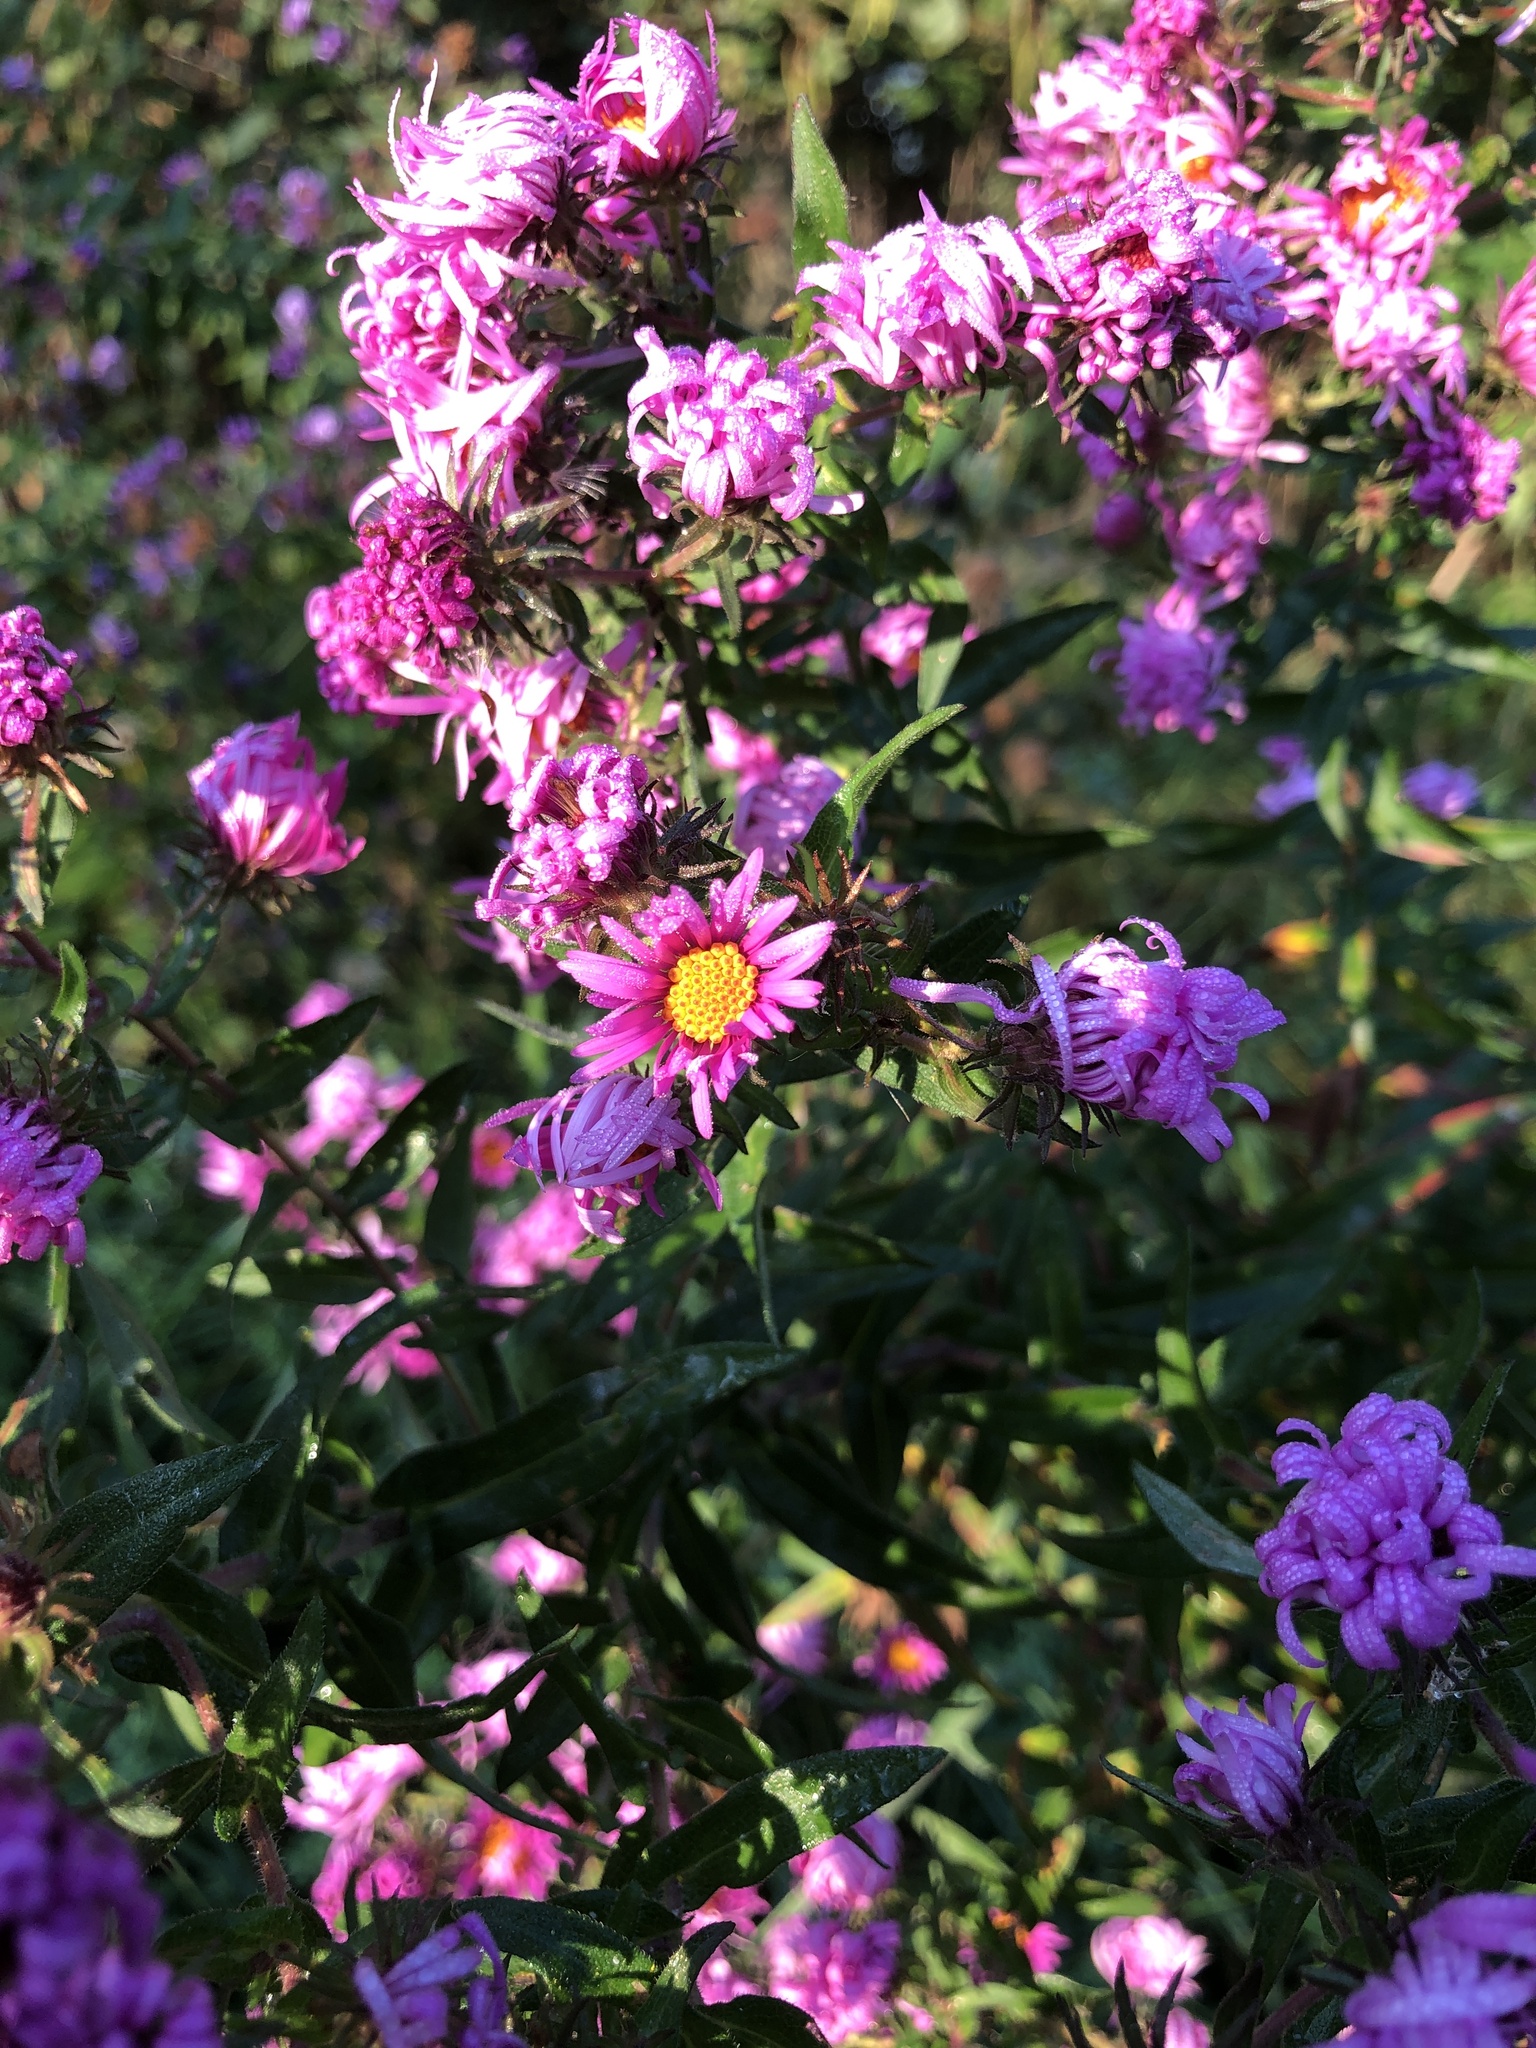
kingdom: Plantae
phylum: Tracheophyta
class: Magnoliopsida
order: Asterales
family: Asteraceae
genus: Symphyotrichum
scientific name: Symphyotrichum novae-angliae
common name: Michaelmas daisy
